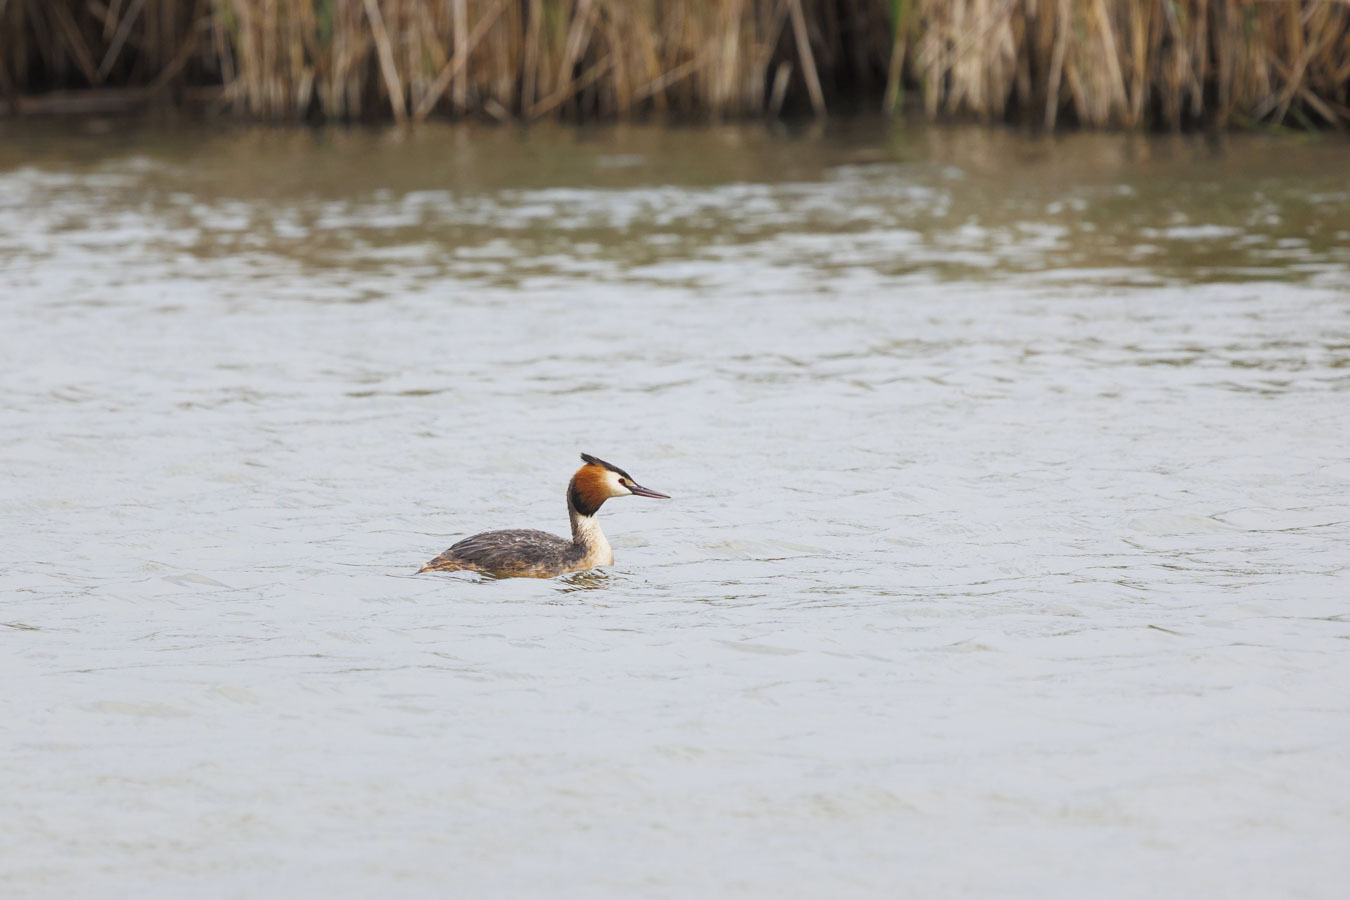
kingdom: Animalia
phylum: Chordata
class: Aves
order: Podicipediformes
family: Podicipedidae
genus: Podiceps
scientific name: Podiceps cristatus
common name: Great crested grebe
